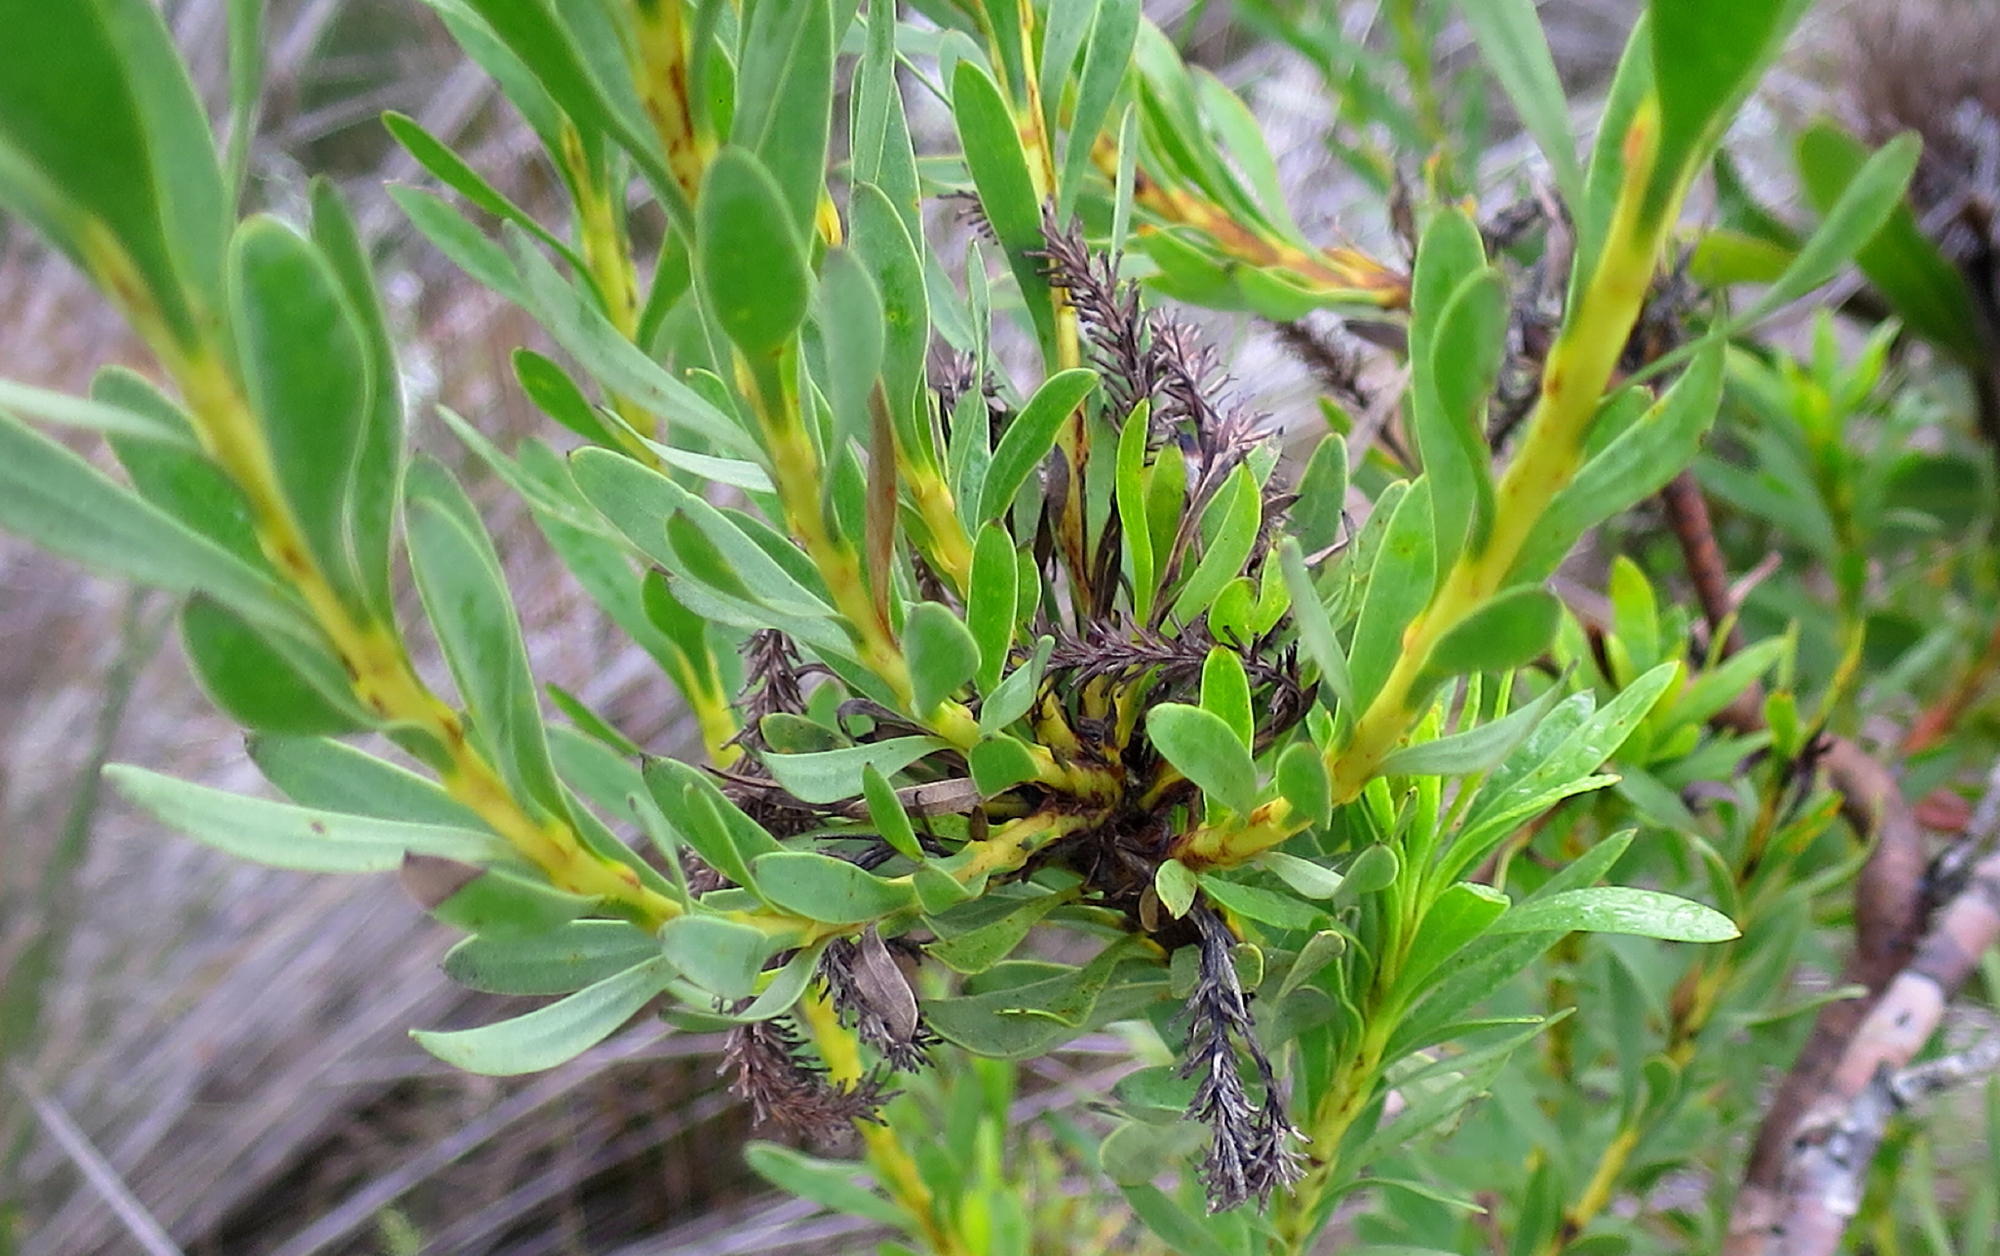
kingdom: Plantae
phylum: Tracheophyta
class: Magnoliopsida
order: Proteales
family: Proteaceae
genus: Aulax
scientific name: Aulax umbellata
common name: Broad-leaf featherbush
